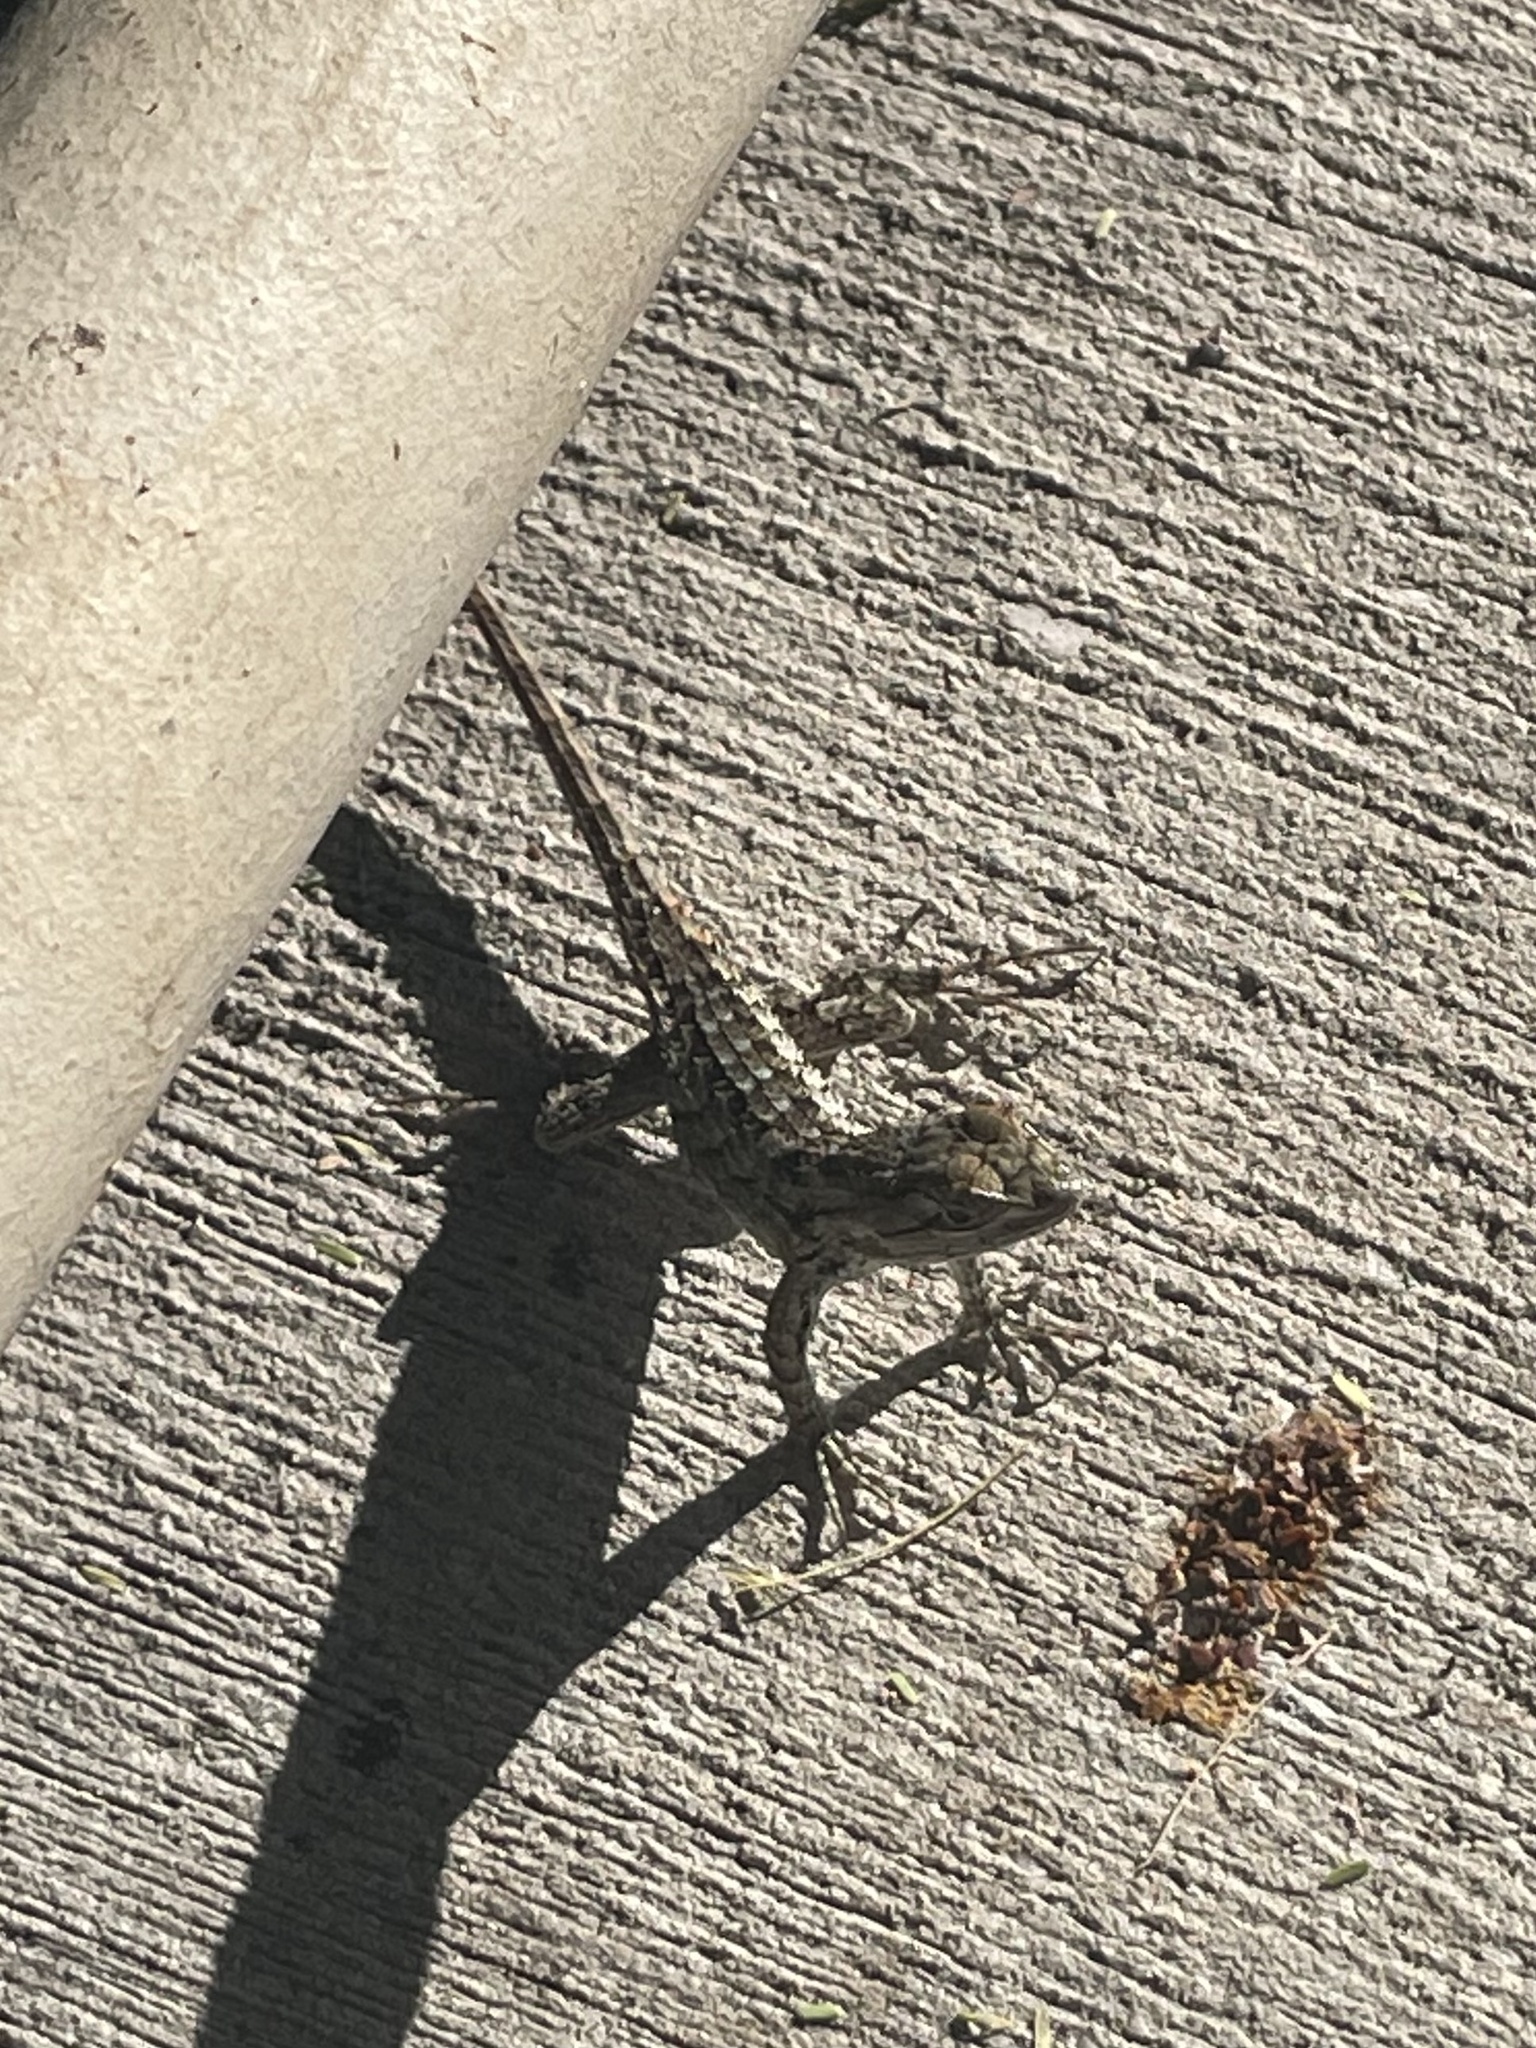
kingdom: Animalia
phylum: Chordata
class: Squamata
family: Phrynosomatidae
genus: Sceloporus
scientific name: Sceloporus olivaceus
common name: Texas spiny lizard
